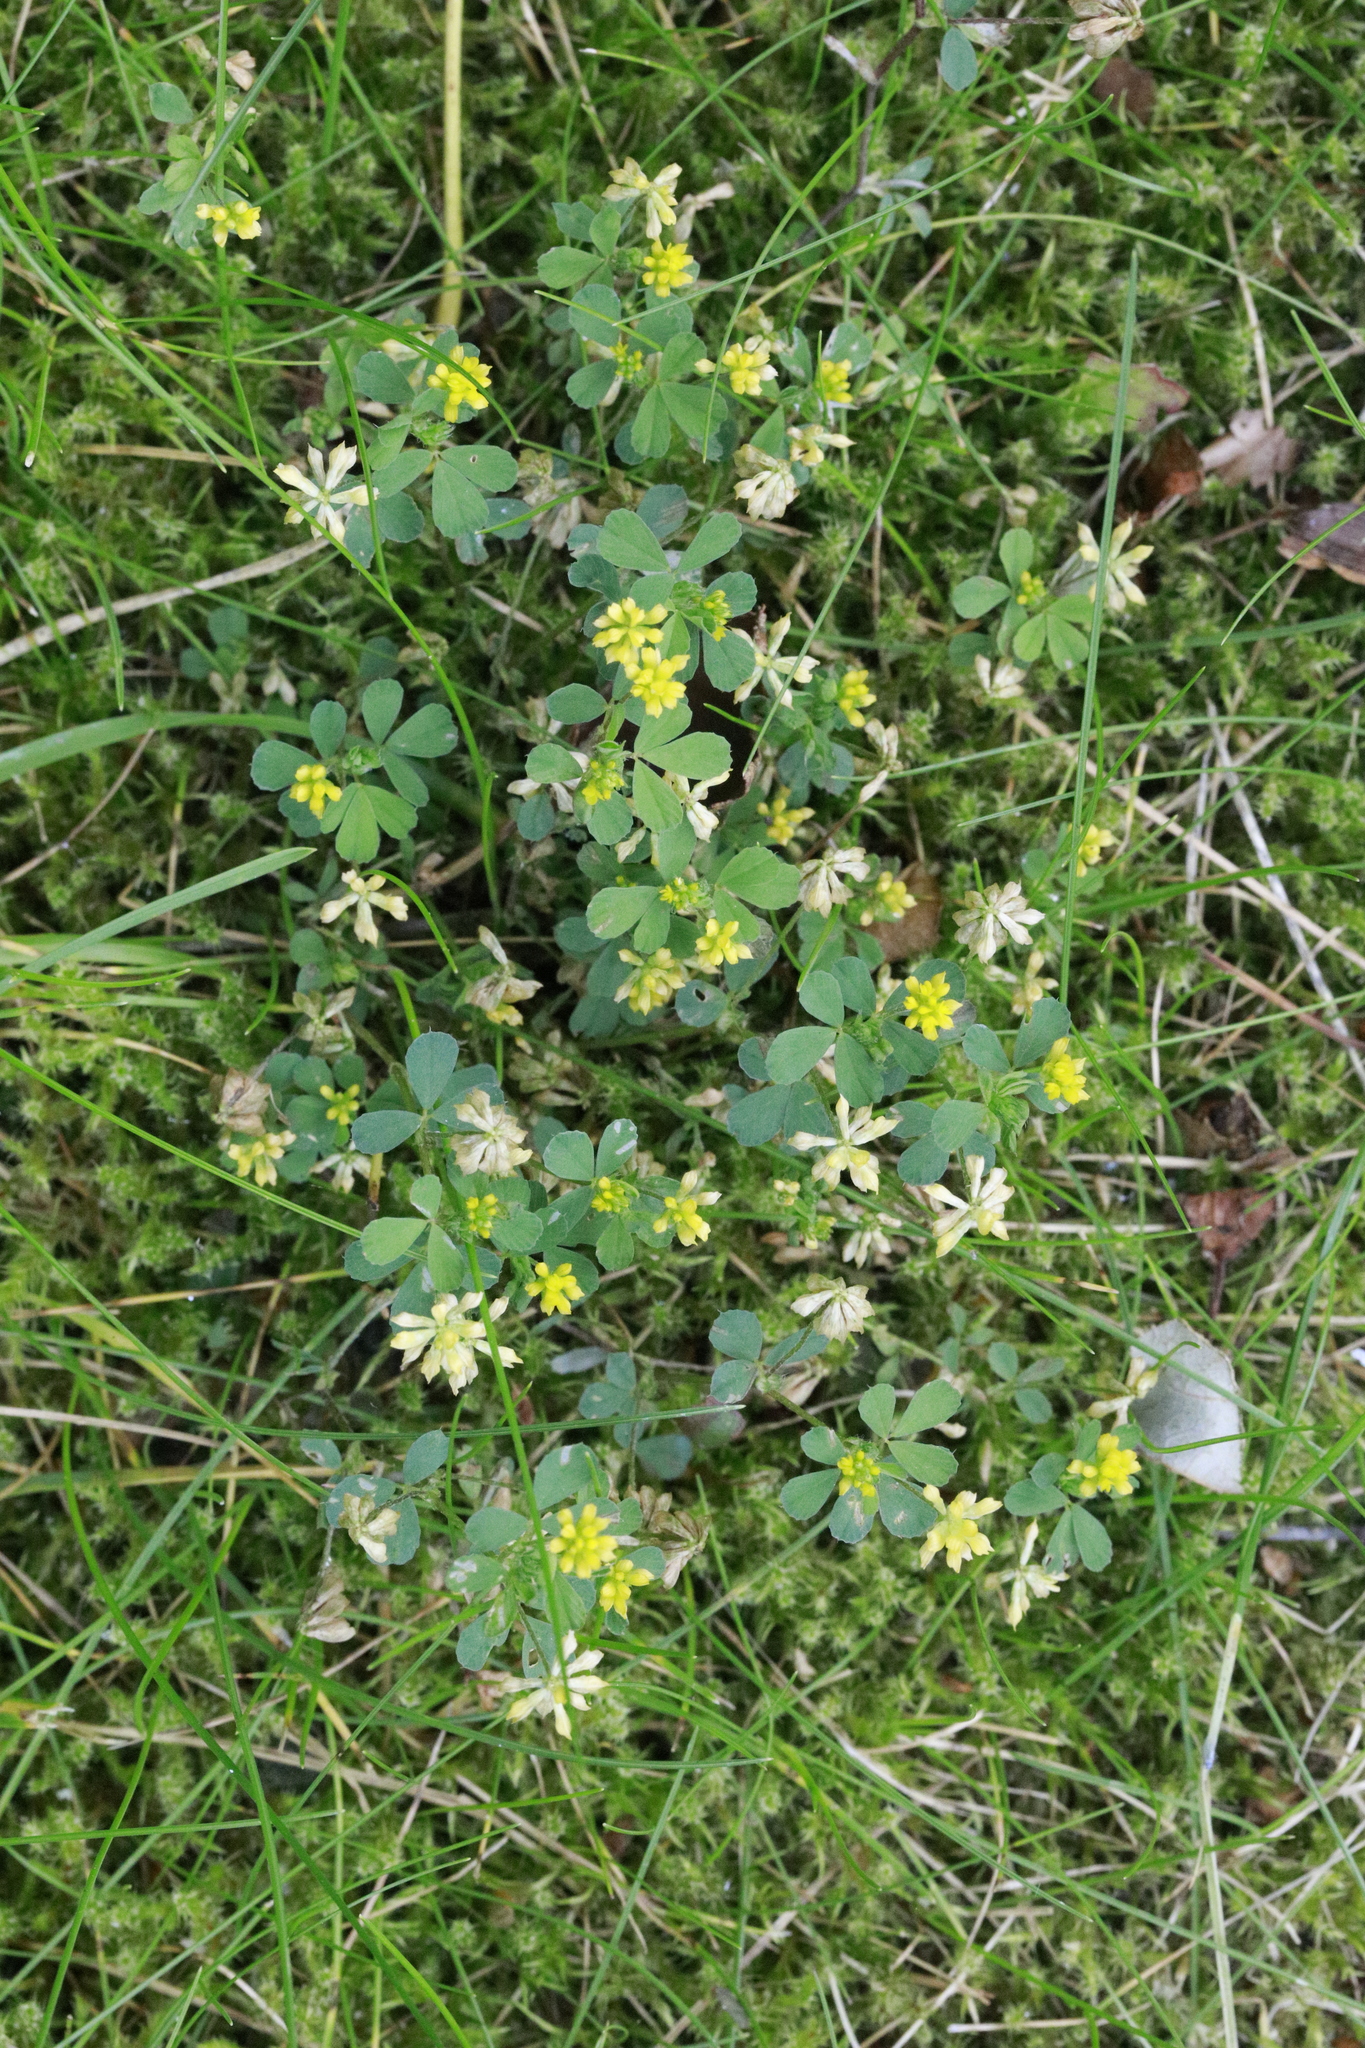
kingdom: Plantae
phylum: Tracheophyta
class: Magnoliopsida
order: Fabales
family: Fabaceae
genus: Trifolium
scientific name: Trifolium dubium
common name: Suckling clover
